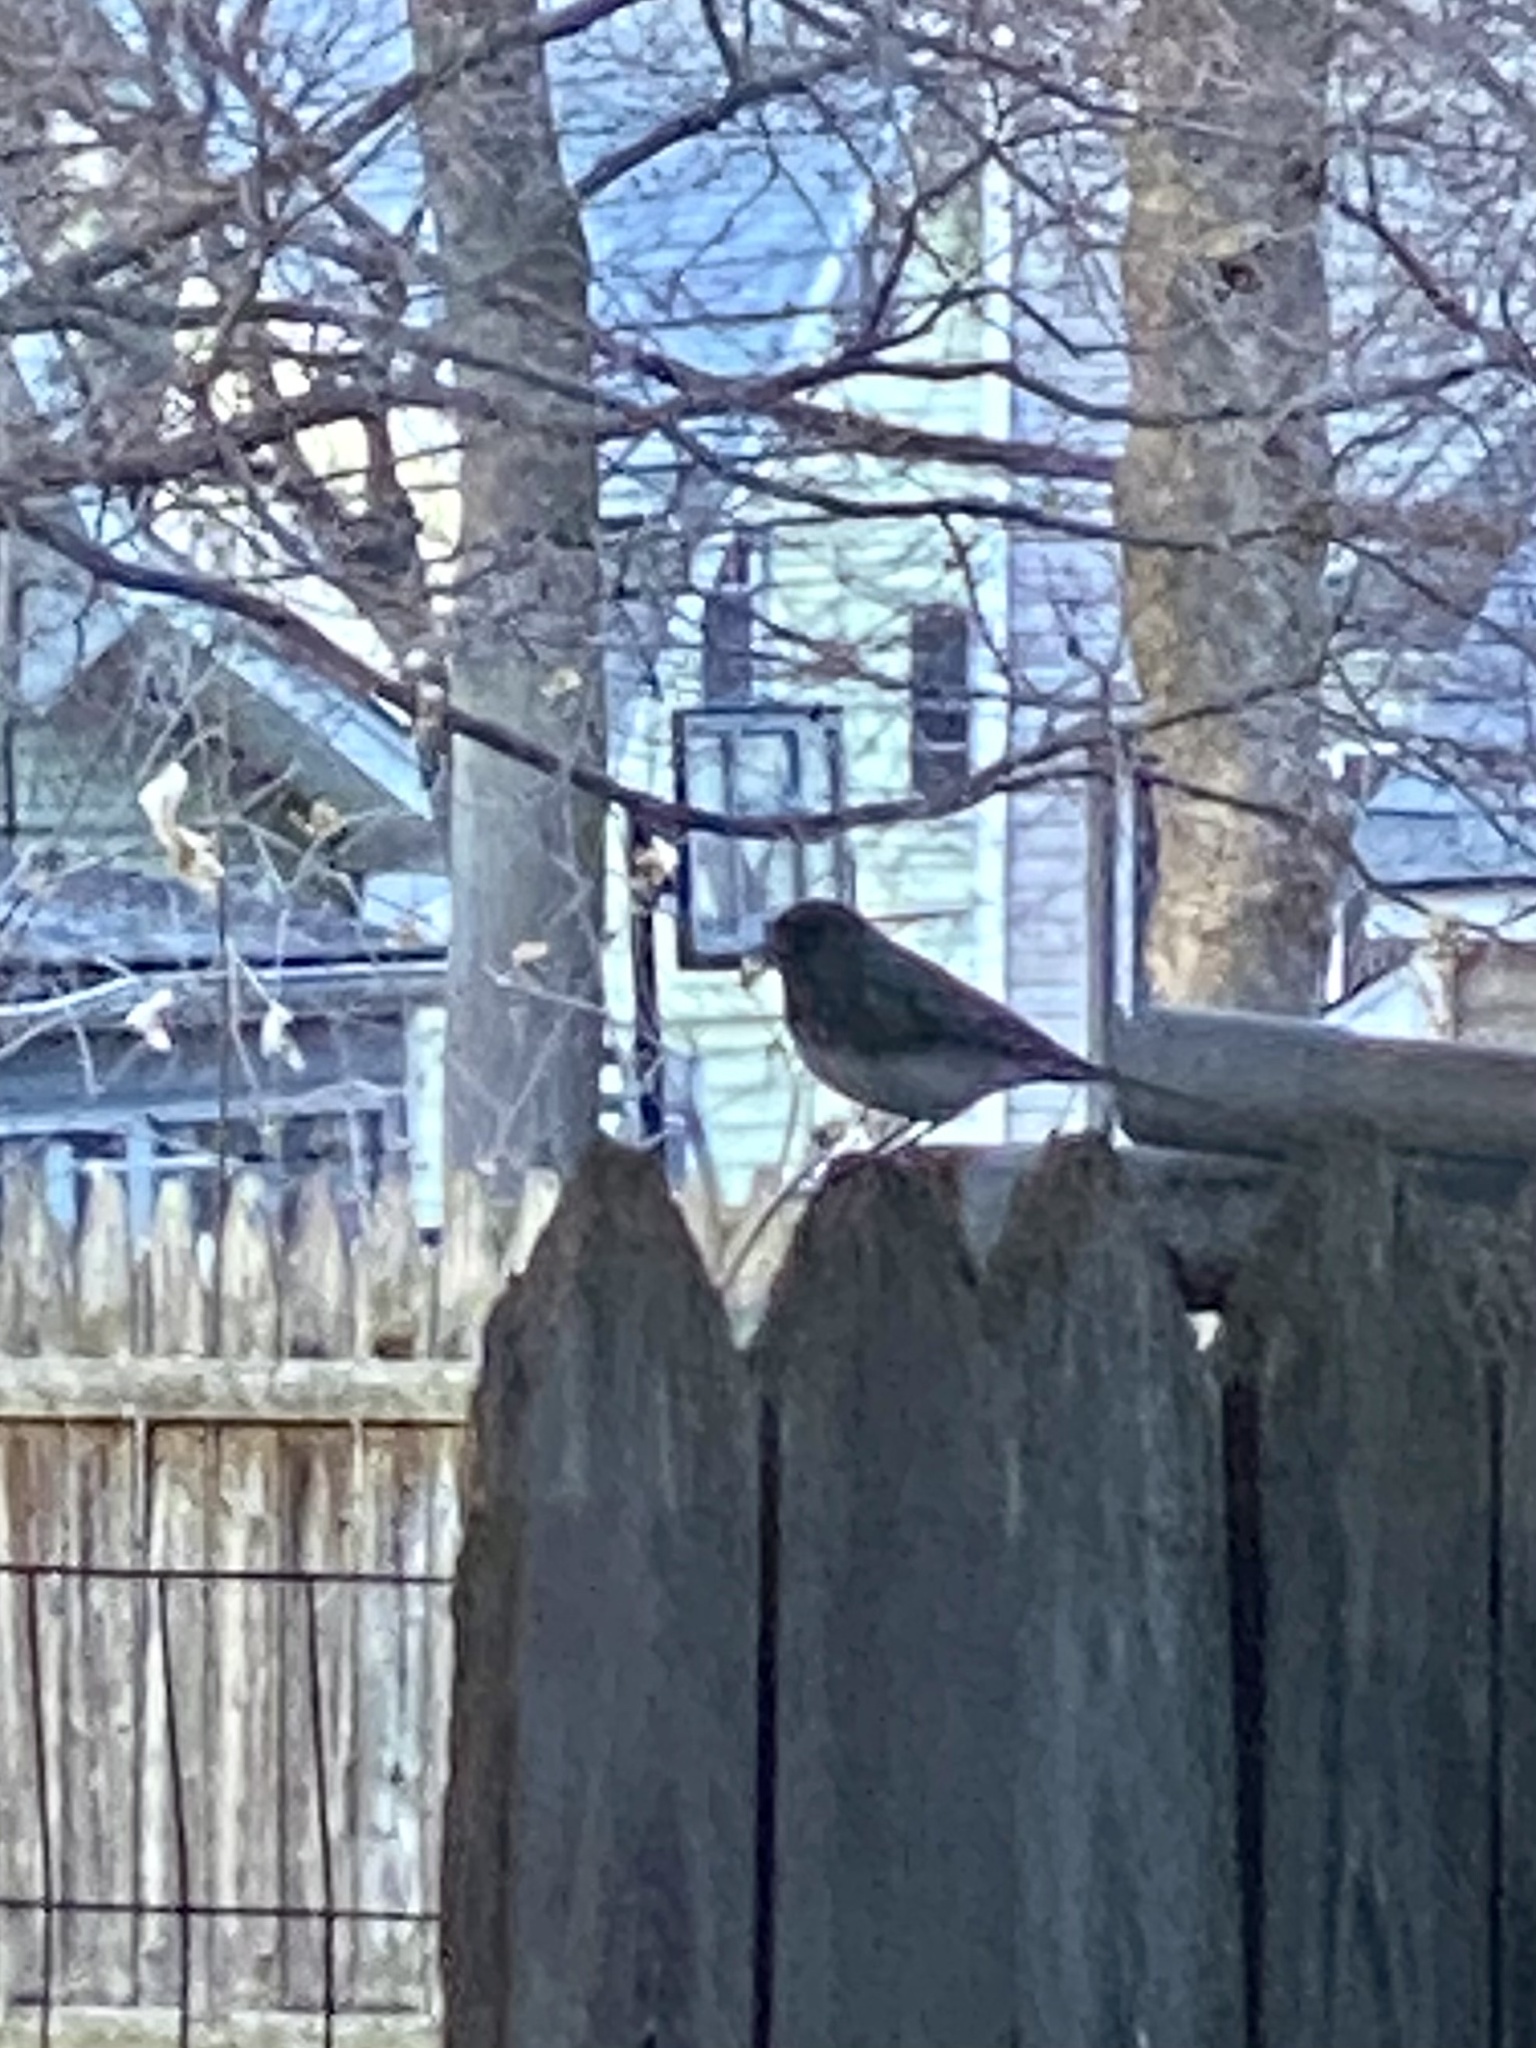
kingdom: Animalia
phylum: Chordata
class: Aves
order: Passeriformes
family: Passerellidae
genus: Junco
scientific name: Junco hyemalis
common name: Dark-eyed junco
